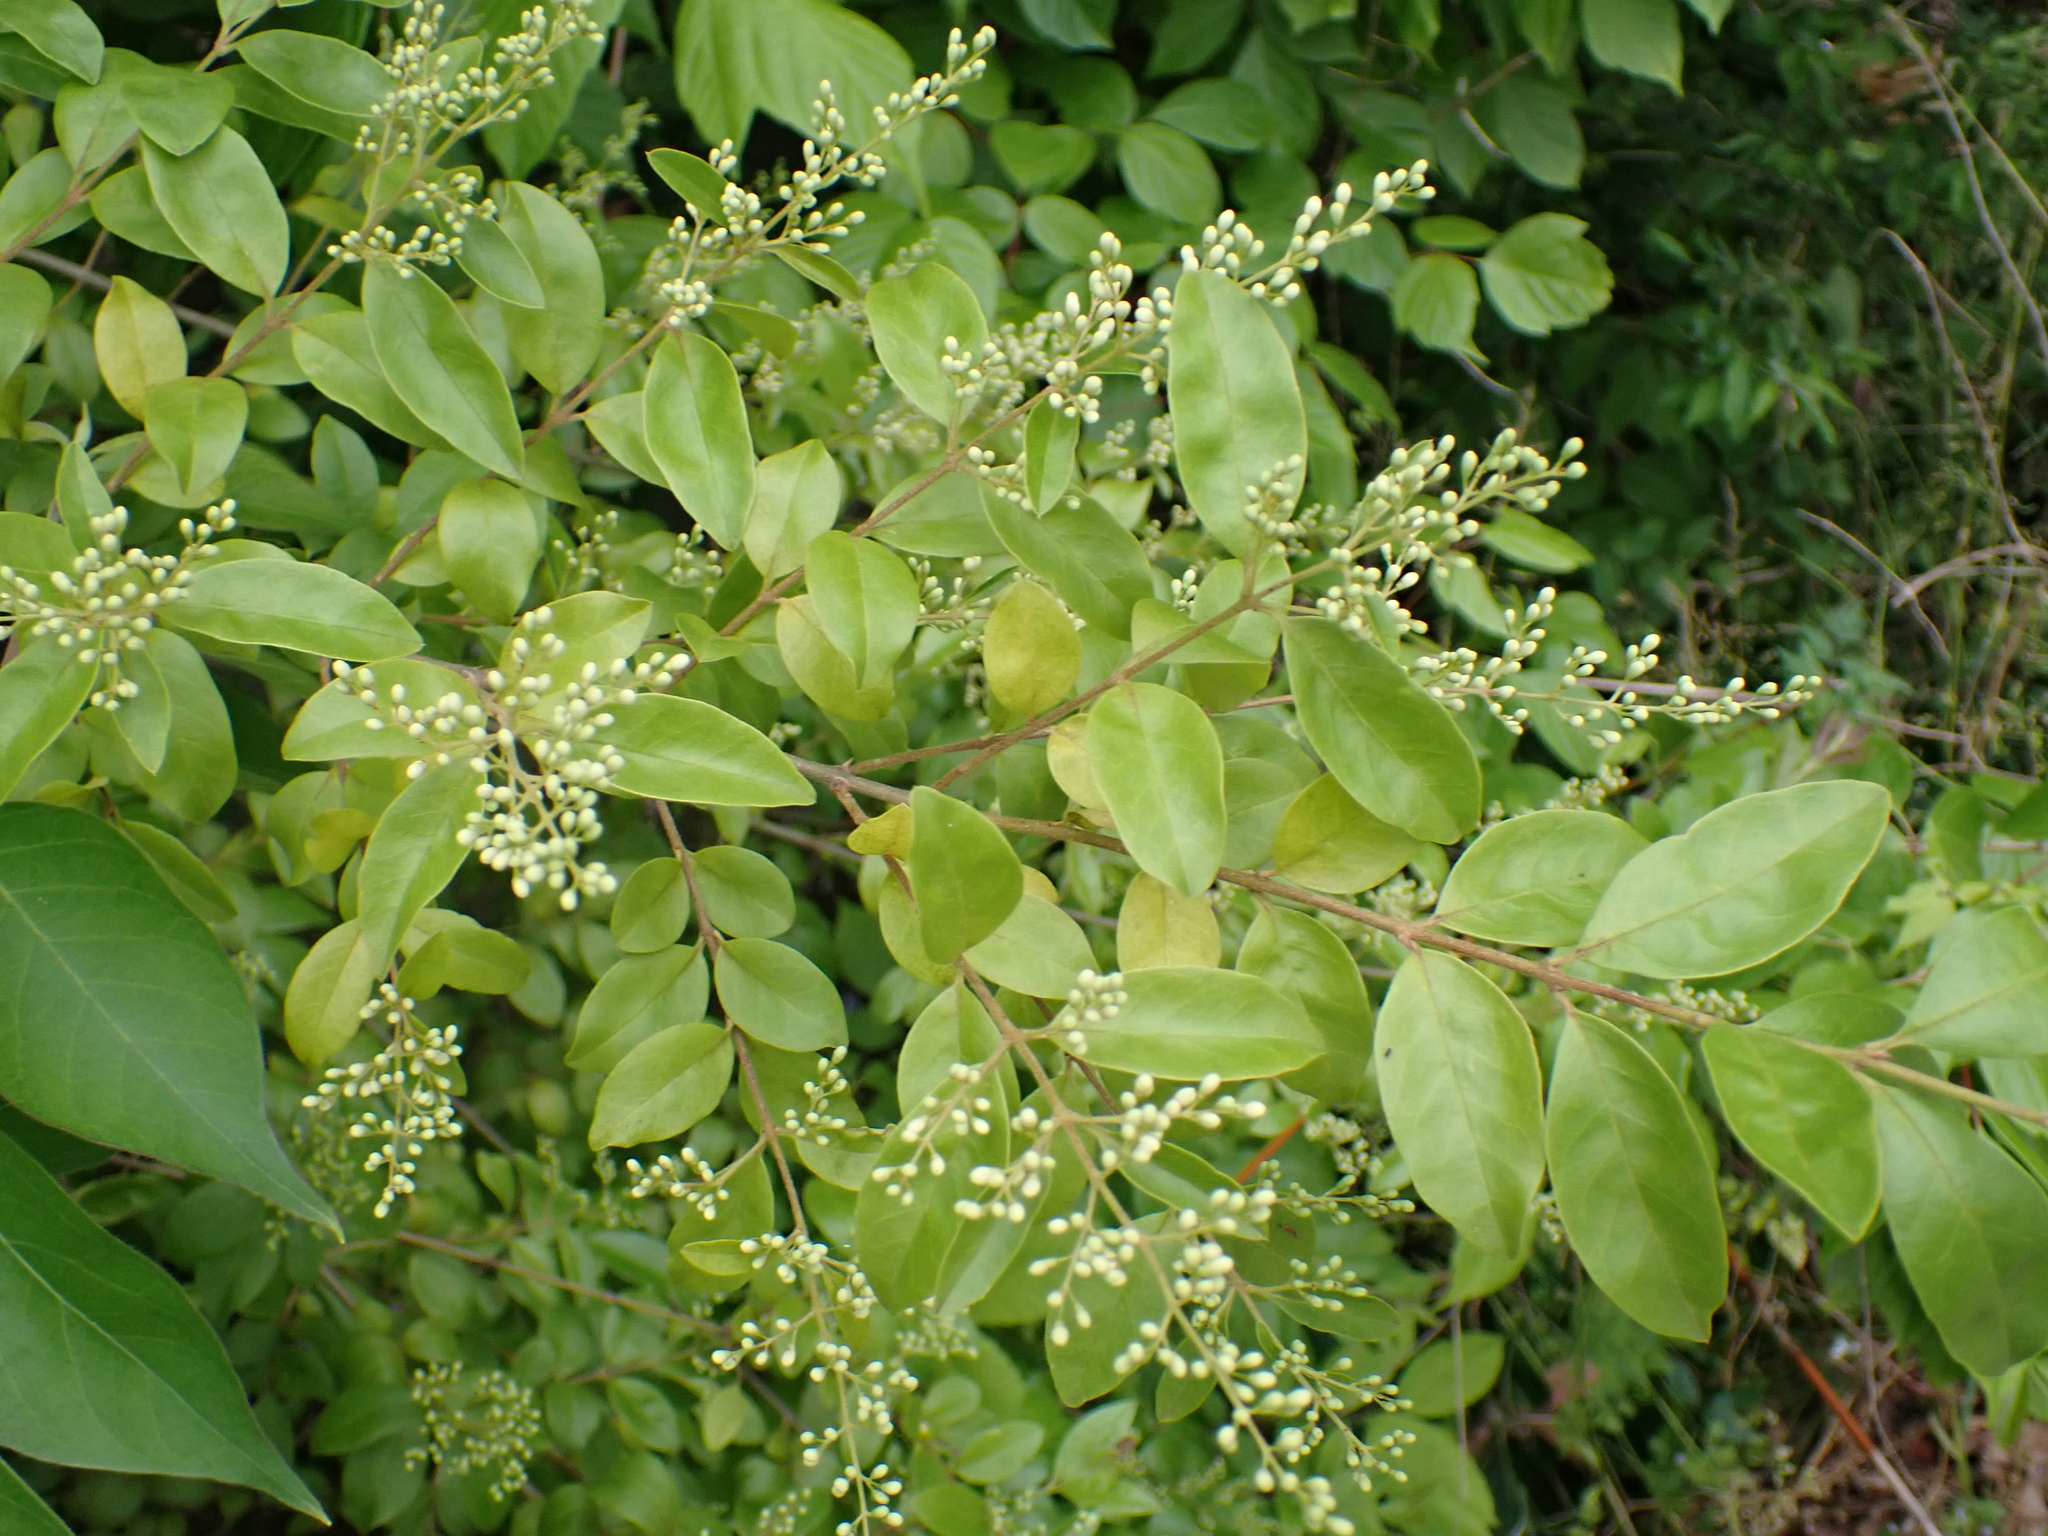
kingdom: Plantae
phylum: Tracheophyta
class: Magnoliopsida
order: Lamiales
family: Oleaceae
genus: Ligustrum
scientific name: Ligustrum sinense
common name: Chinese privet
